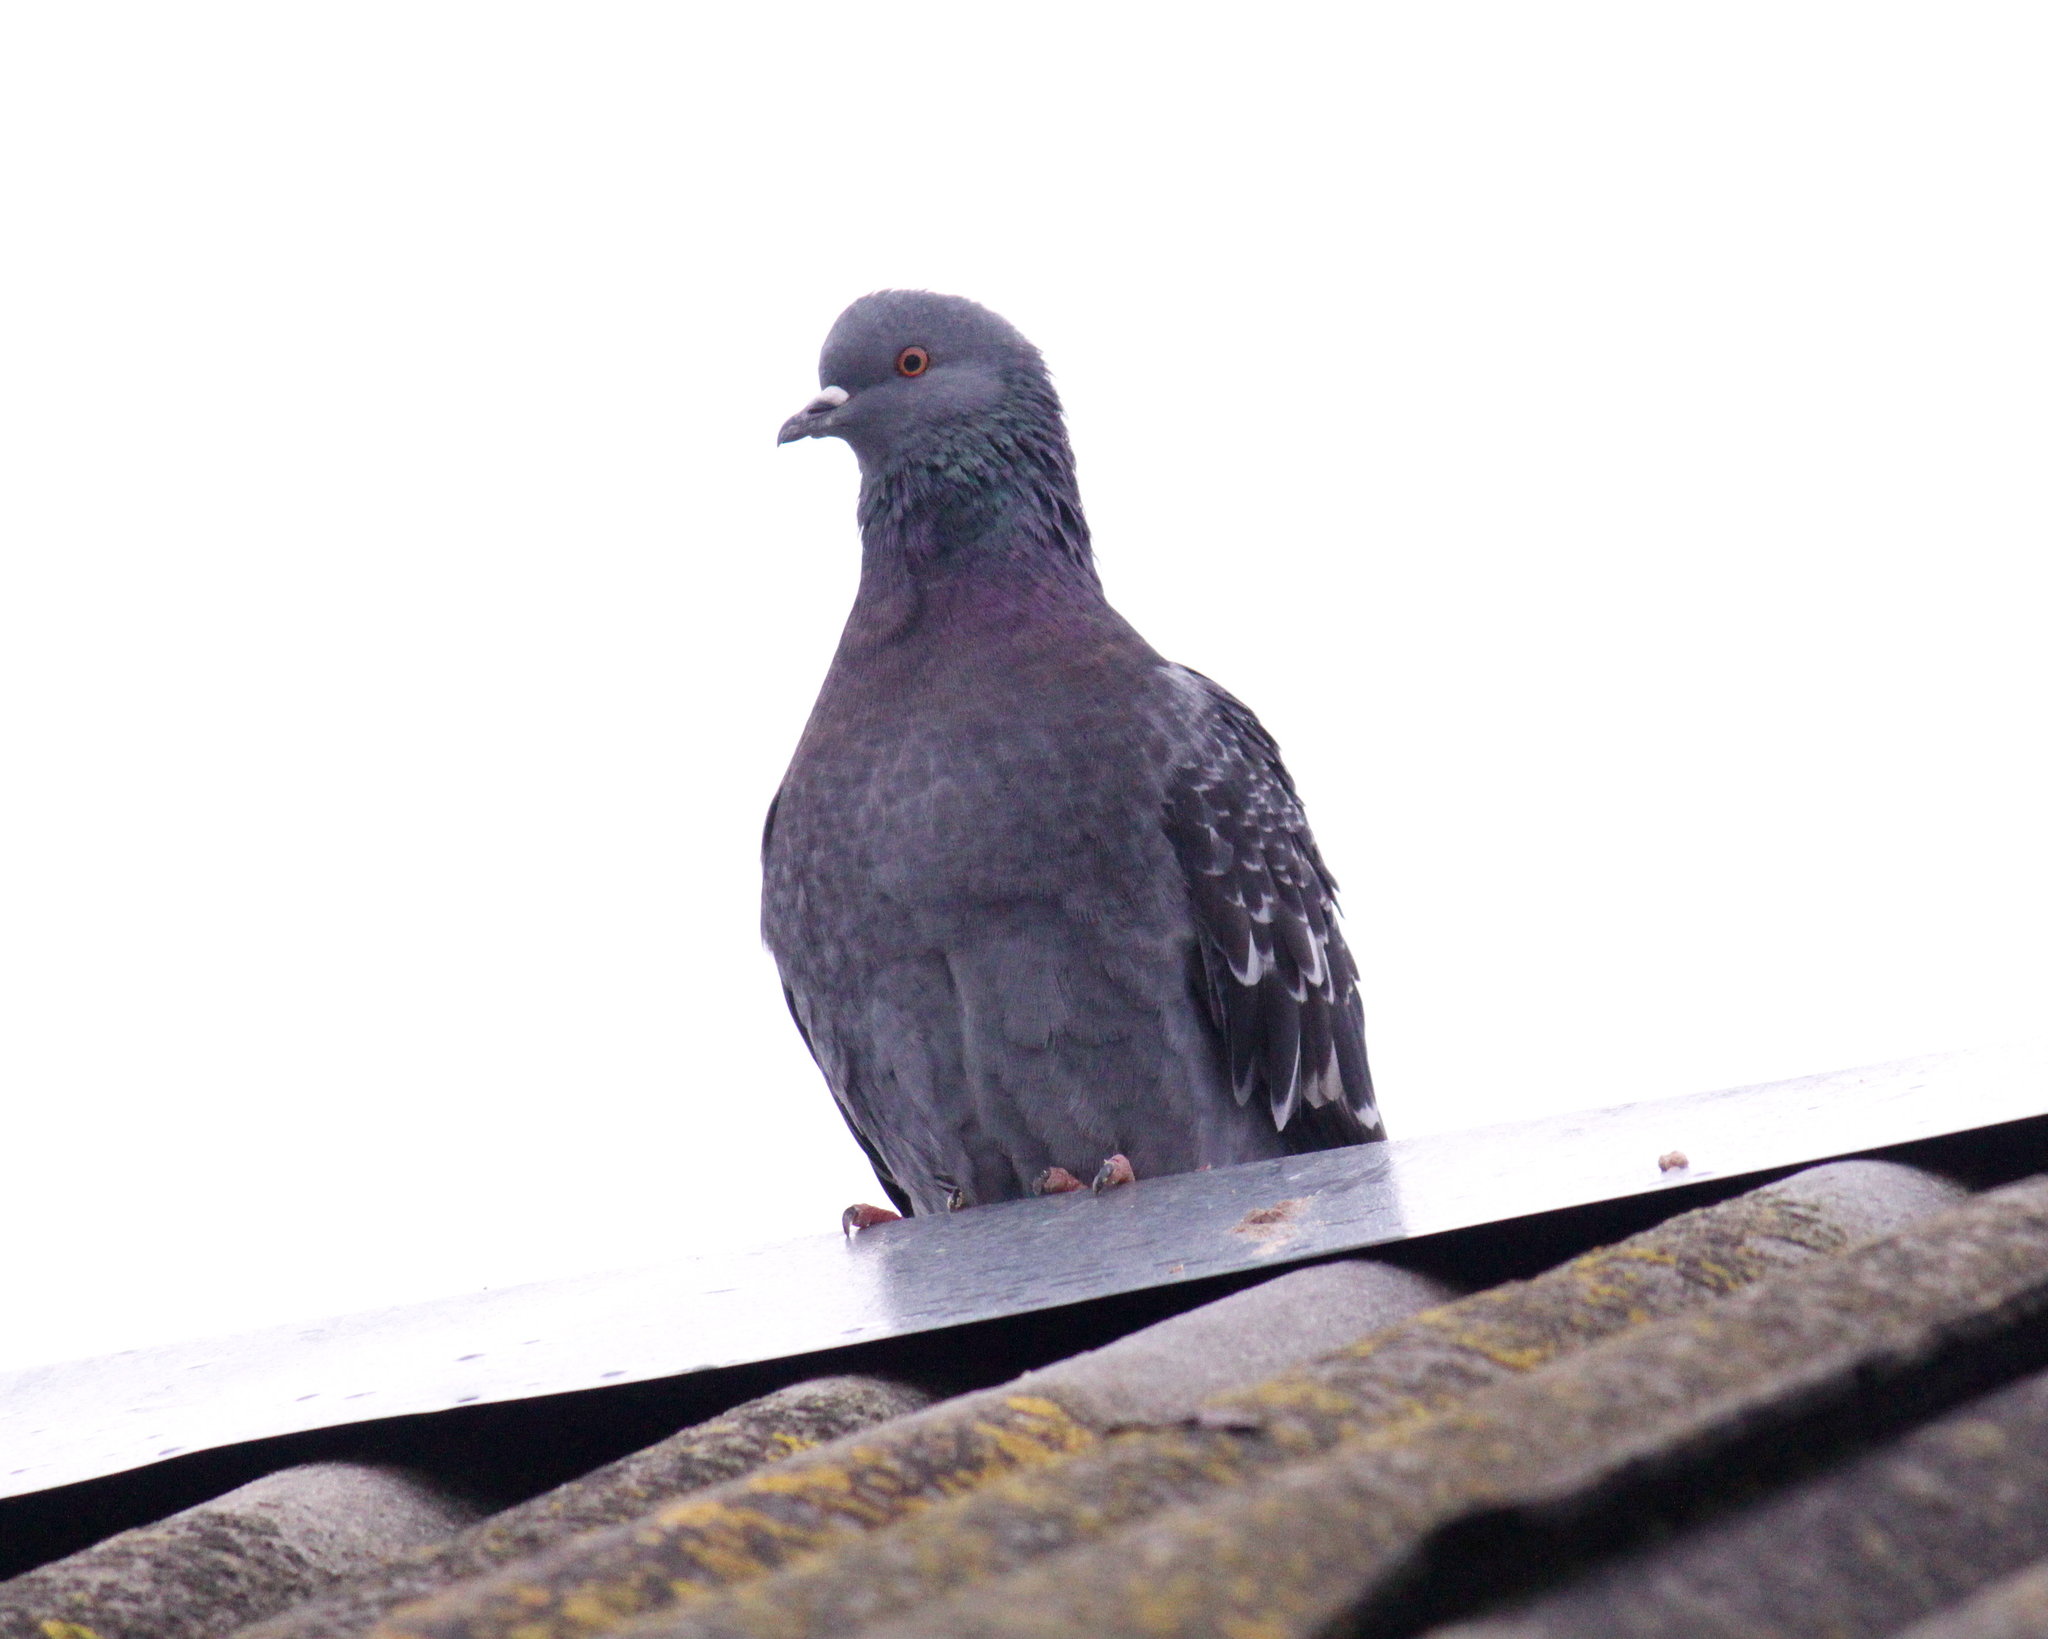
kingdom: Animalia
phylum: Chordata
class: Aves
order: Columbiformes
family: Columbidae
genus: Columba
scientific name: Columba livia
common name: Rock pigeon
